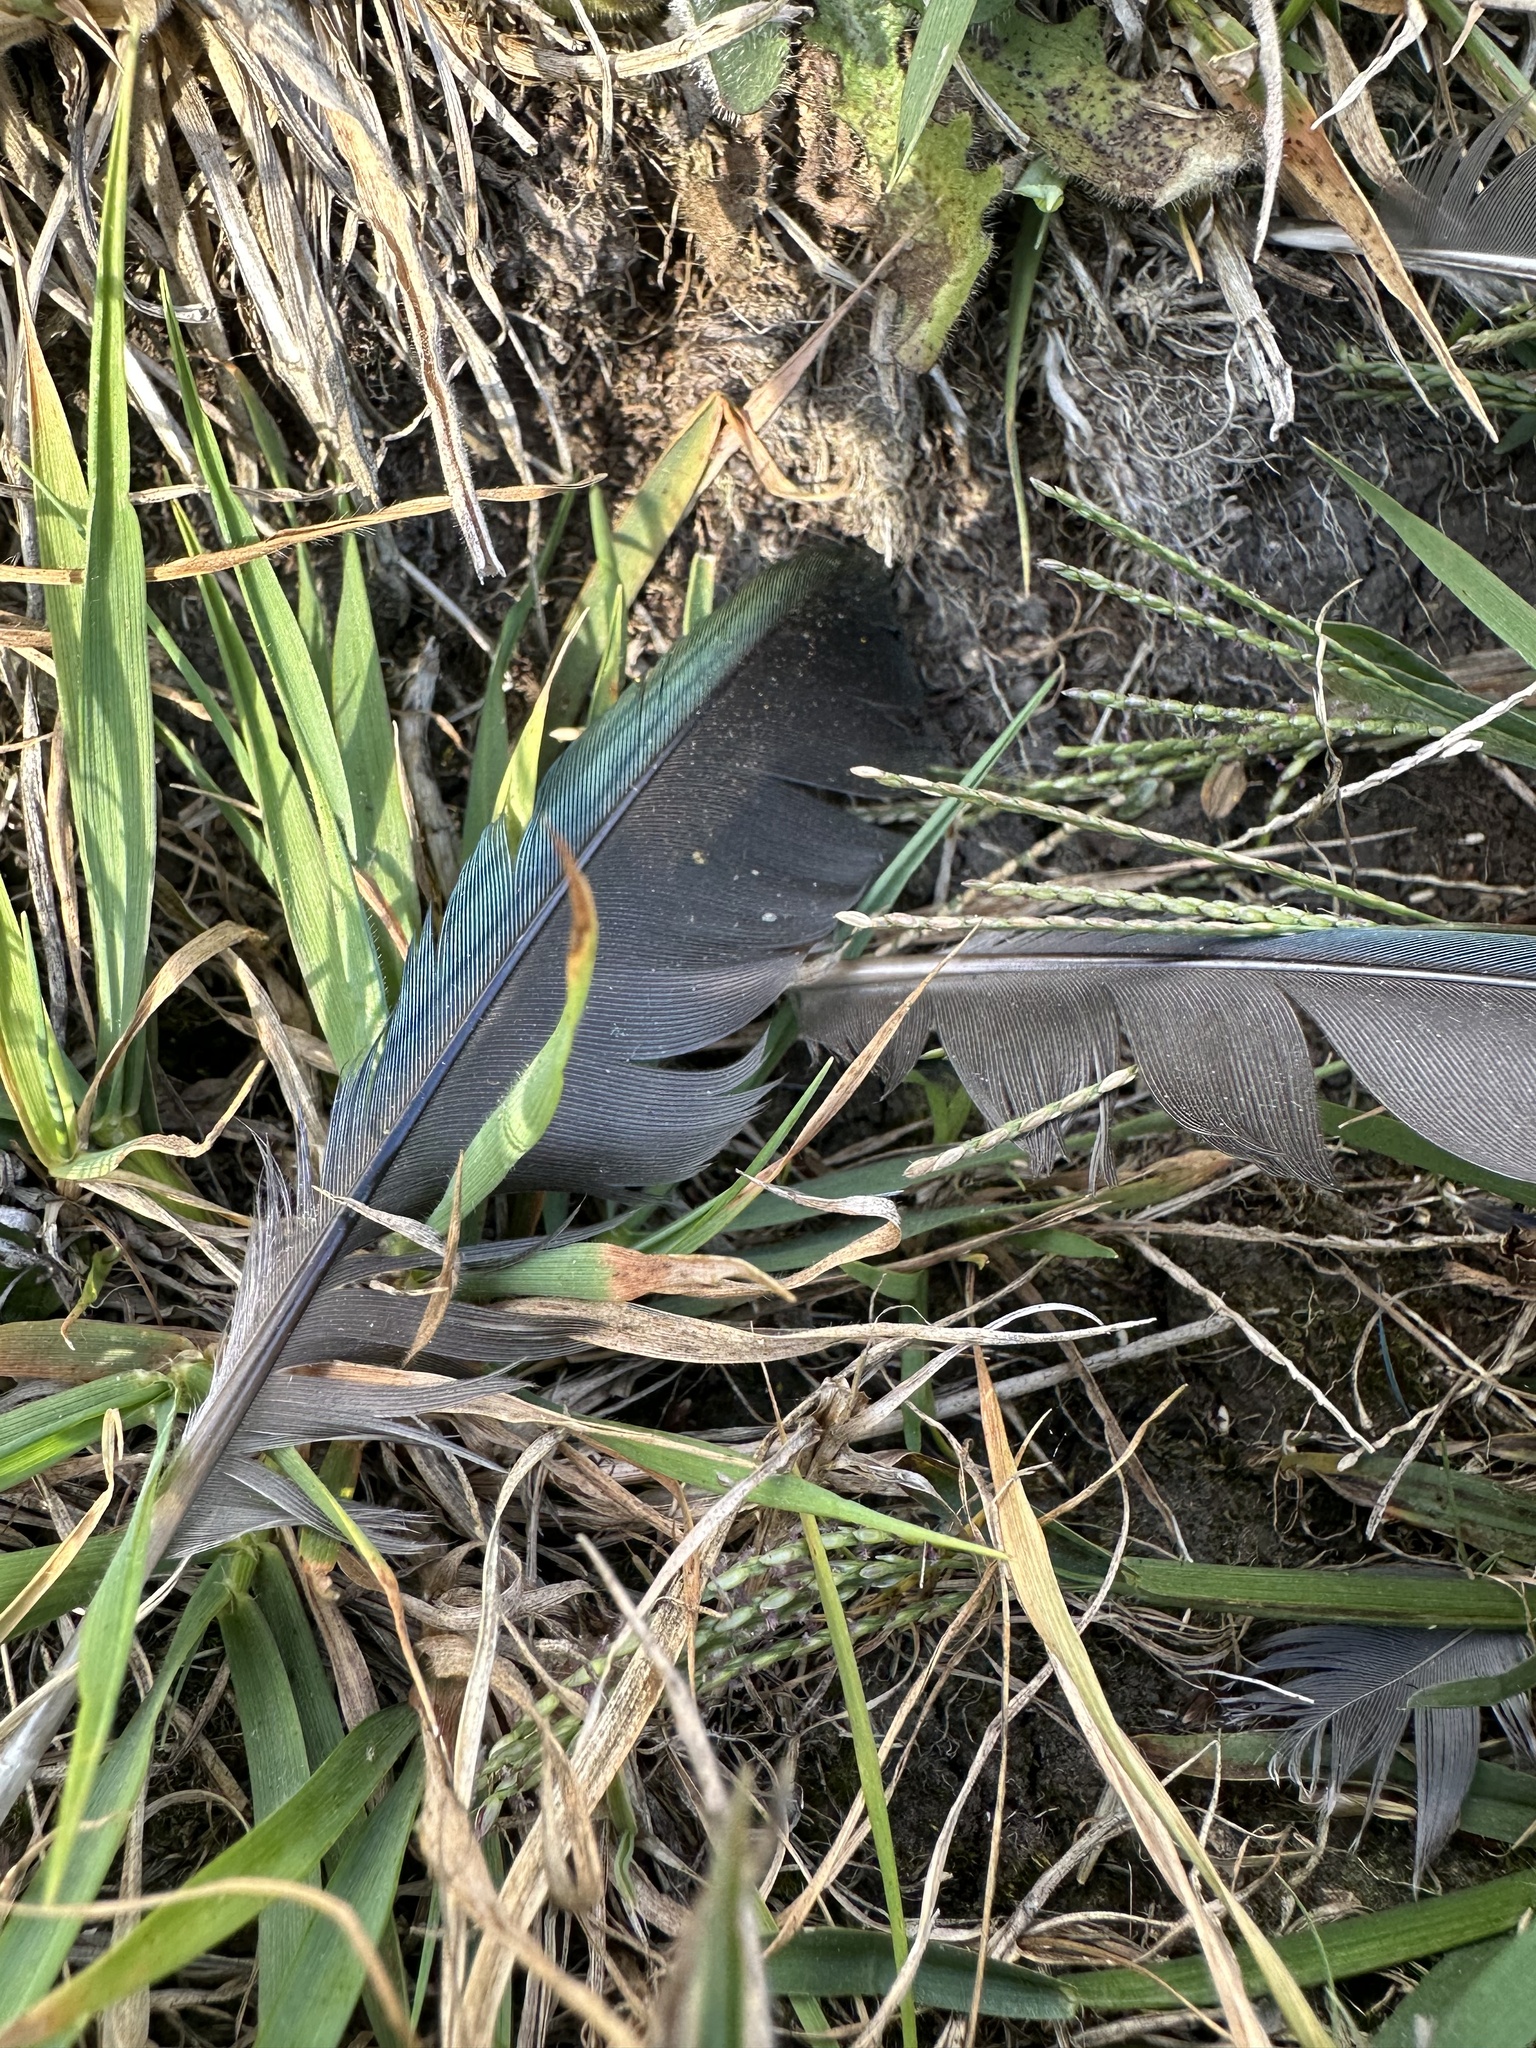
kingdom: Animalia
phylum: Chordata
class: Aves
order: Gruiformes
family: Rallidae
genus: Porphyrio
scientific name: Porphyrio martinica
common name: Purple gallinule
